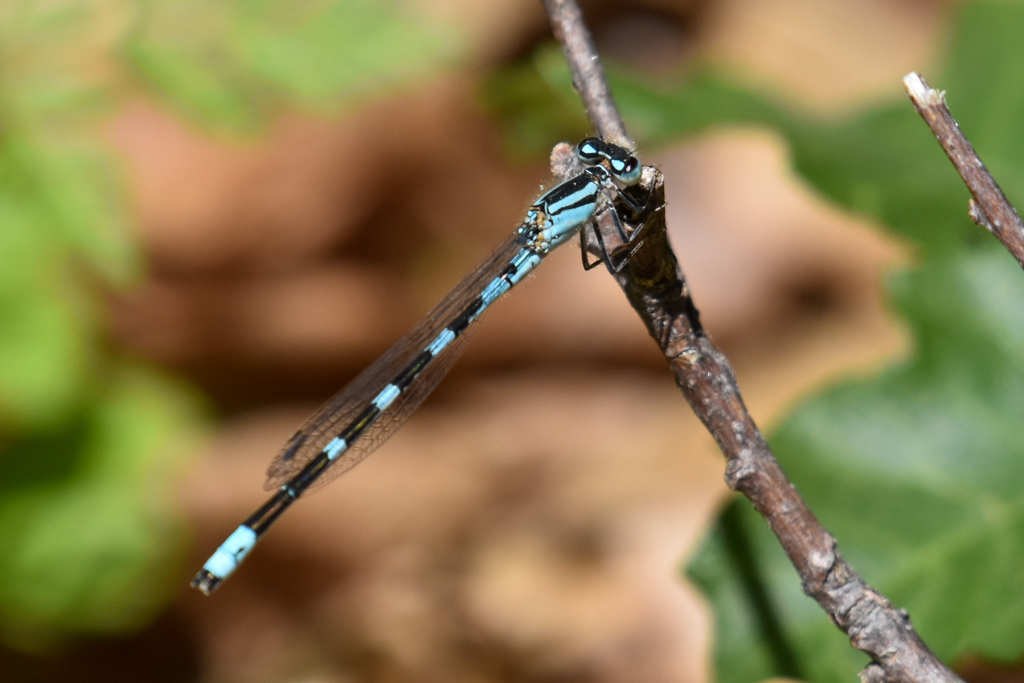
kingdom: Animalia
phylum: Arthropoda
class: Insecta
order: Odonata
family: Coenagrionidae
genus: Enallagma
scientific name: Enallagma carunculatum
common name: Tule bluet
